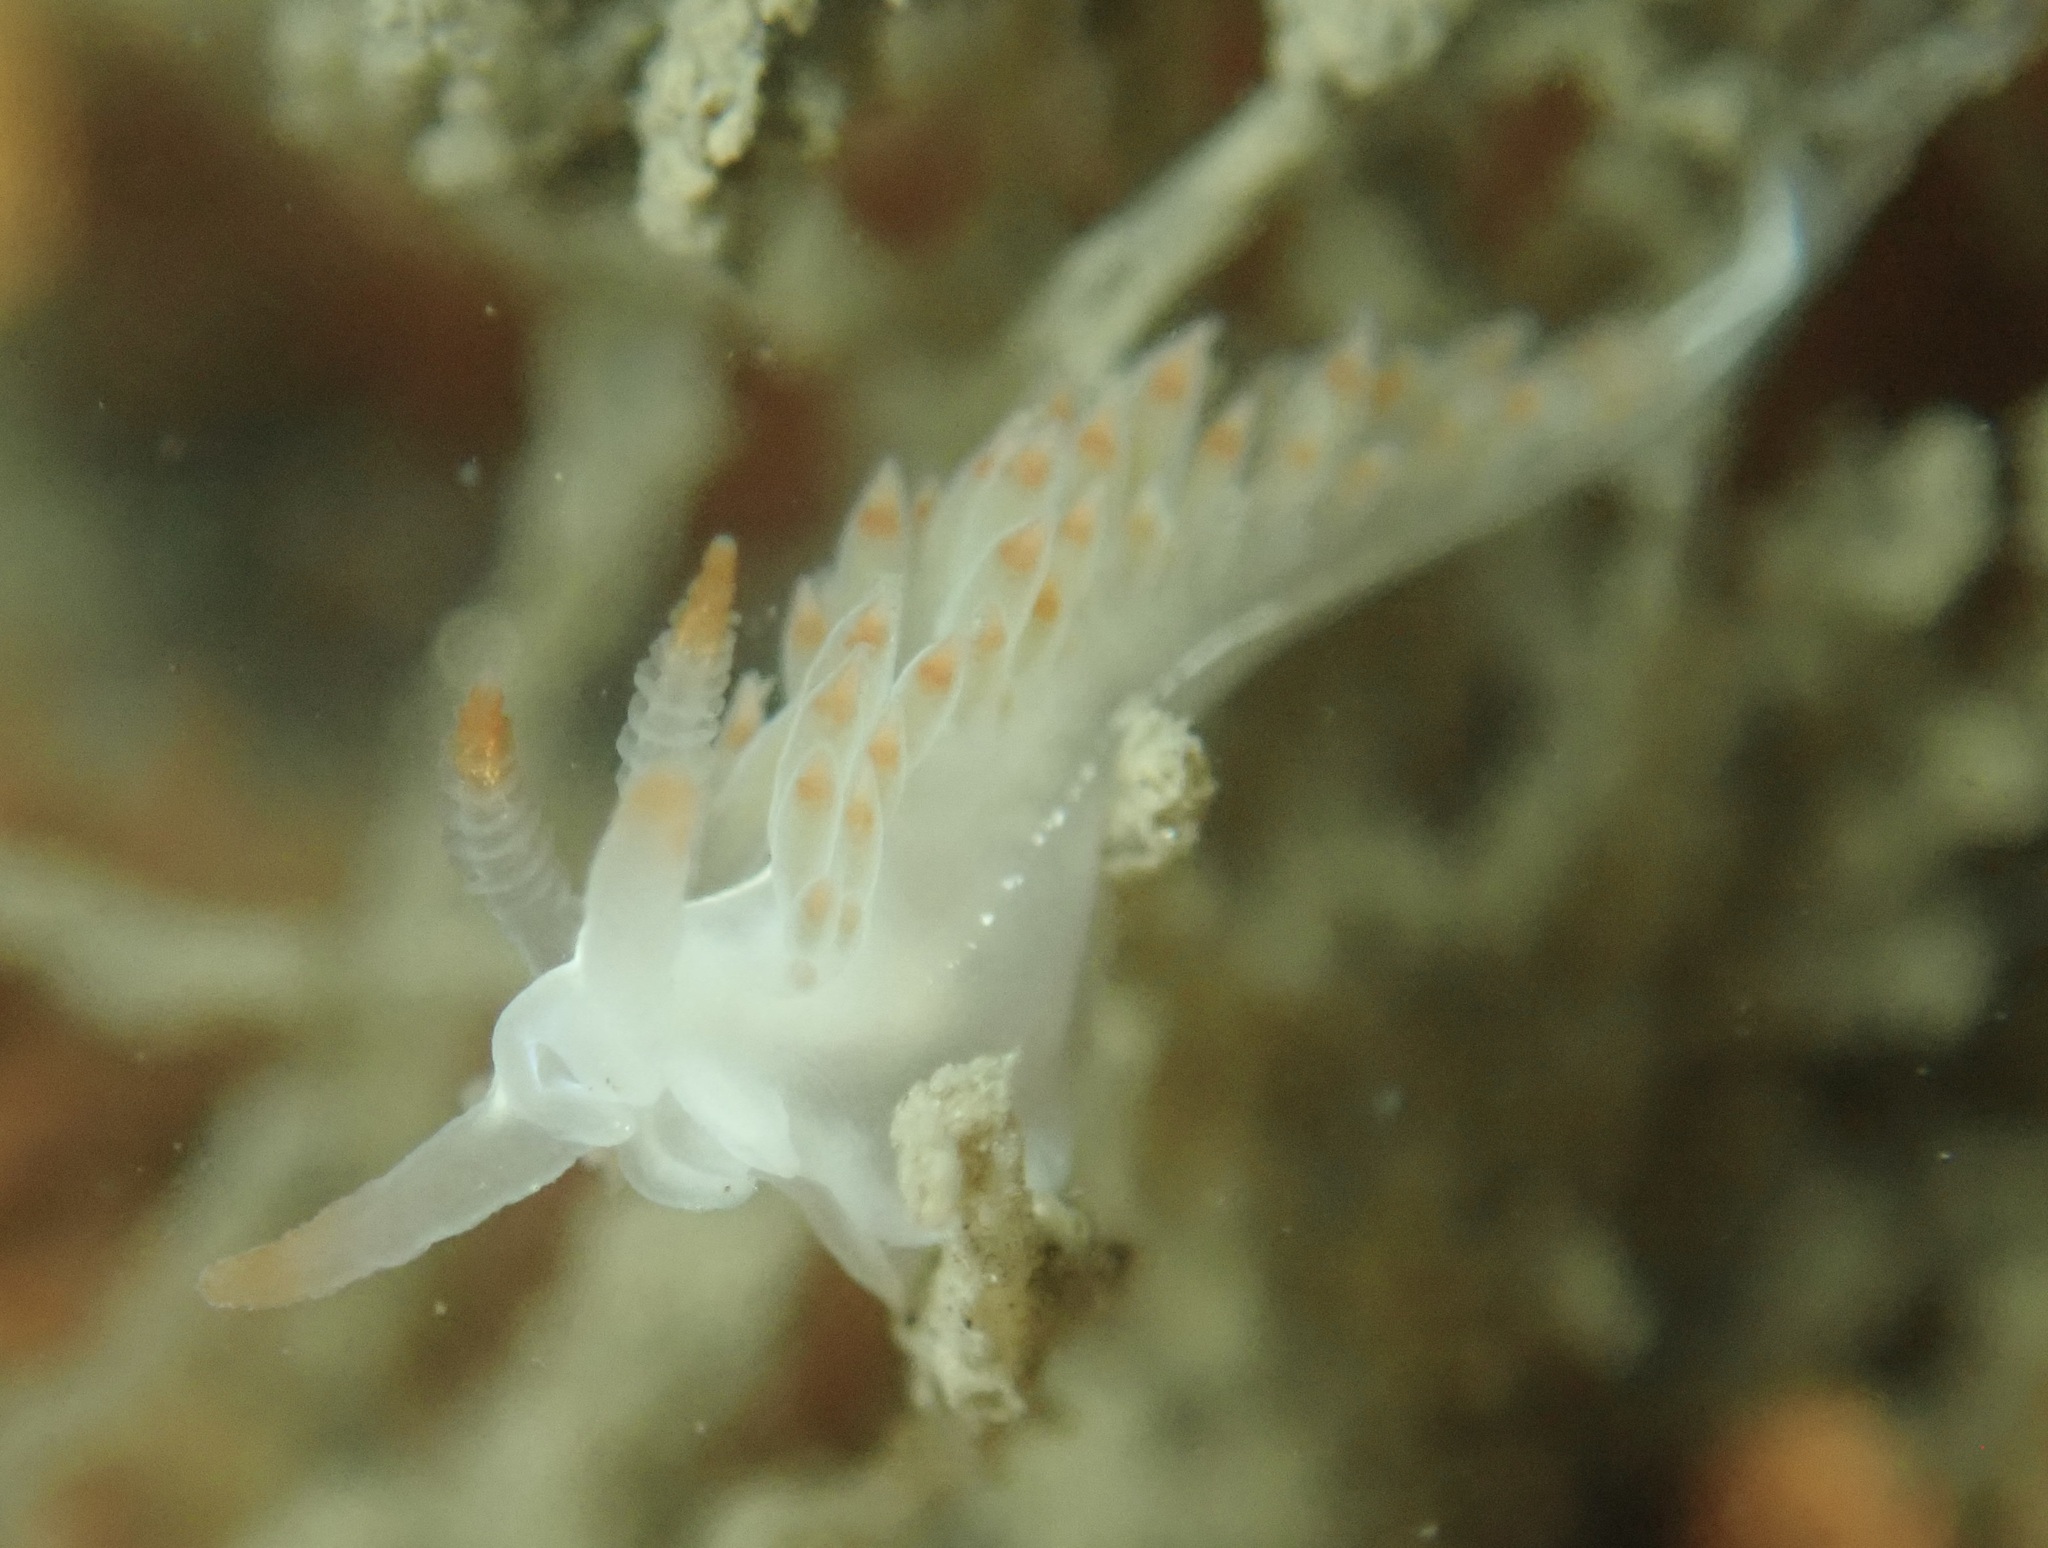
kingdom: Animalia
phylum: Mollusca
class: Gastropoda
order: Nudibranchia
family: Coryphellidae
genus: Coryphella
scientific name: Coryphella trilineata
